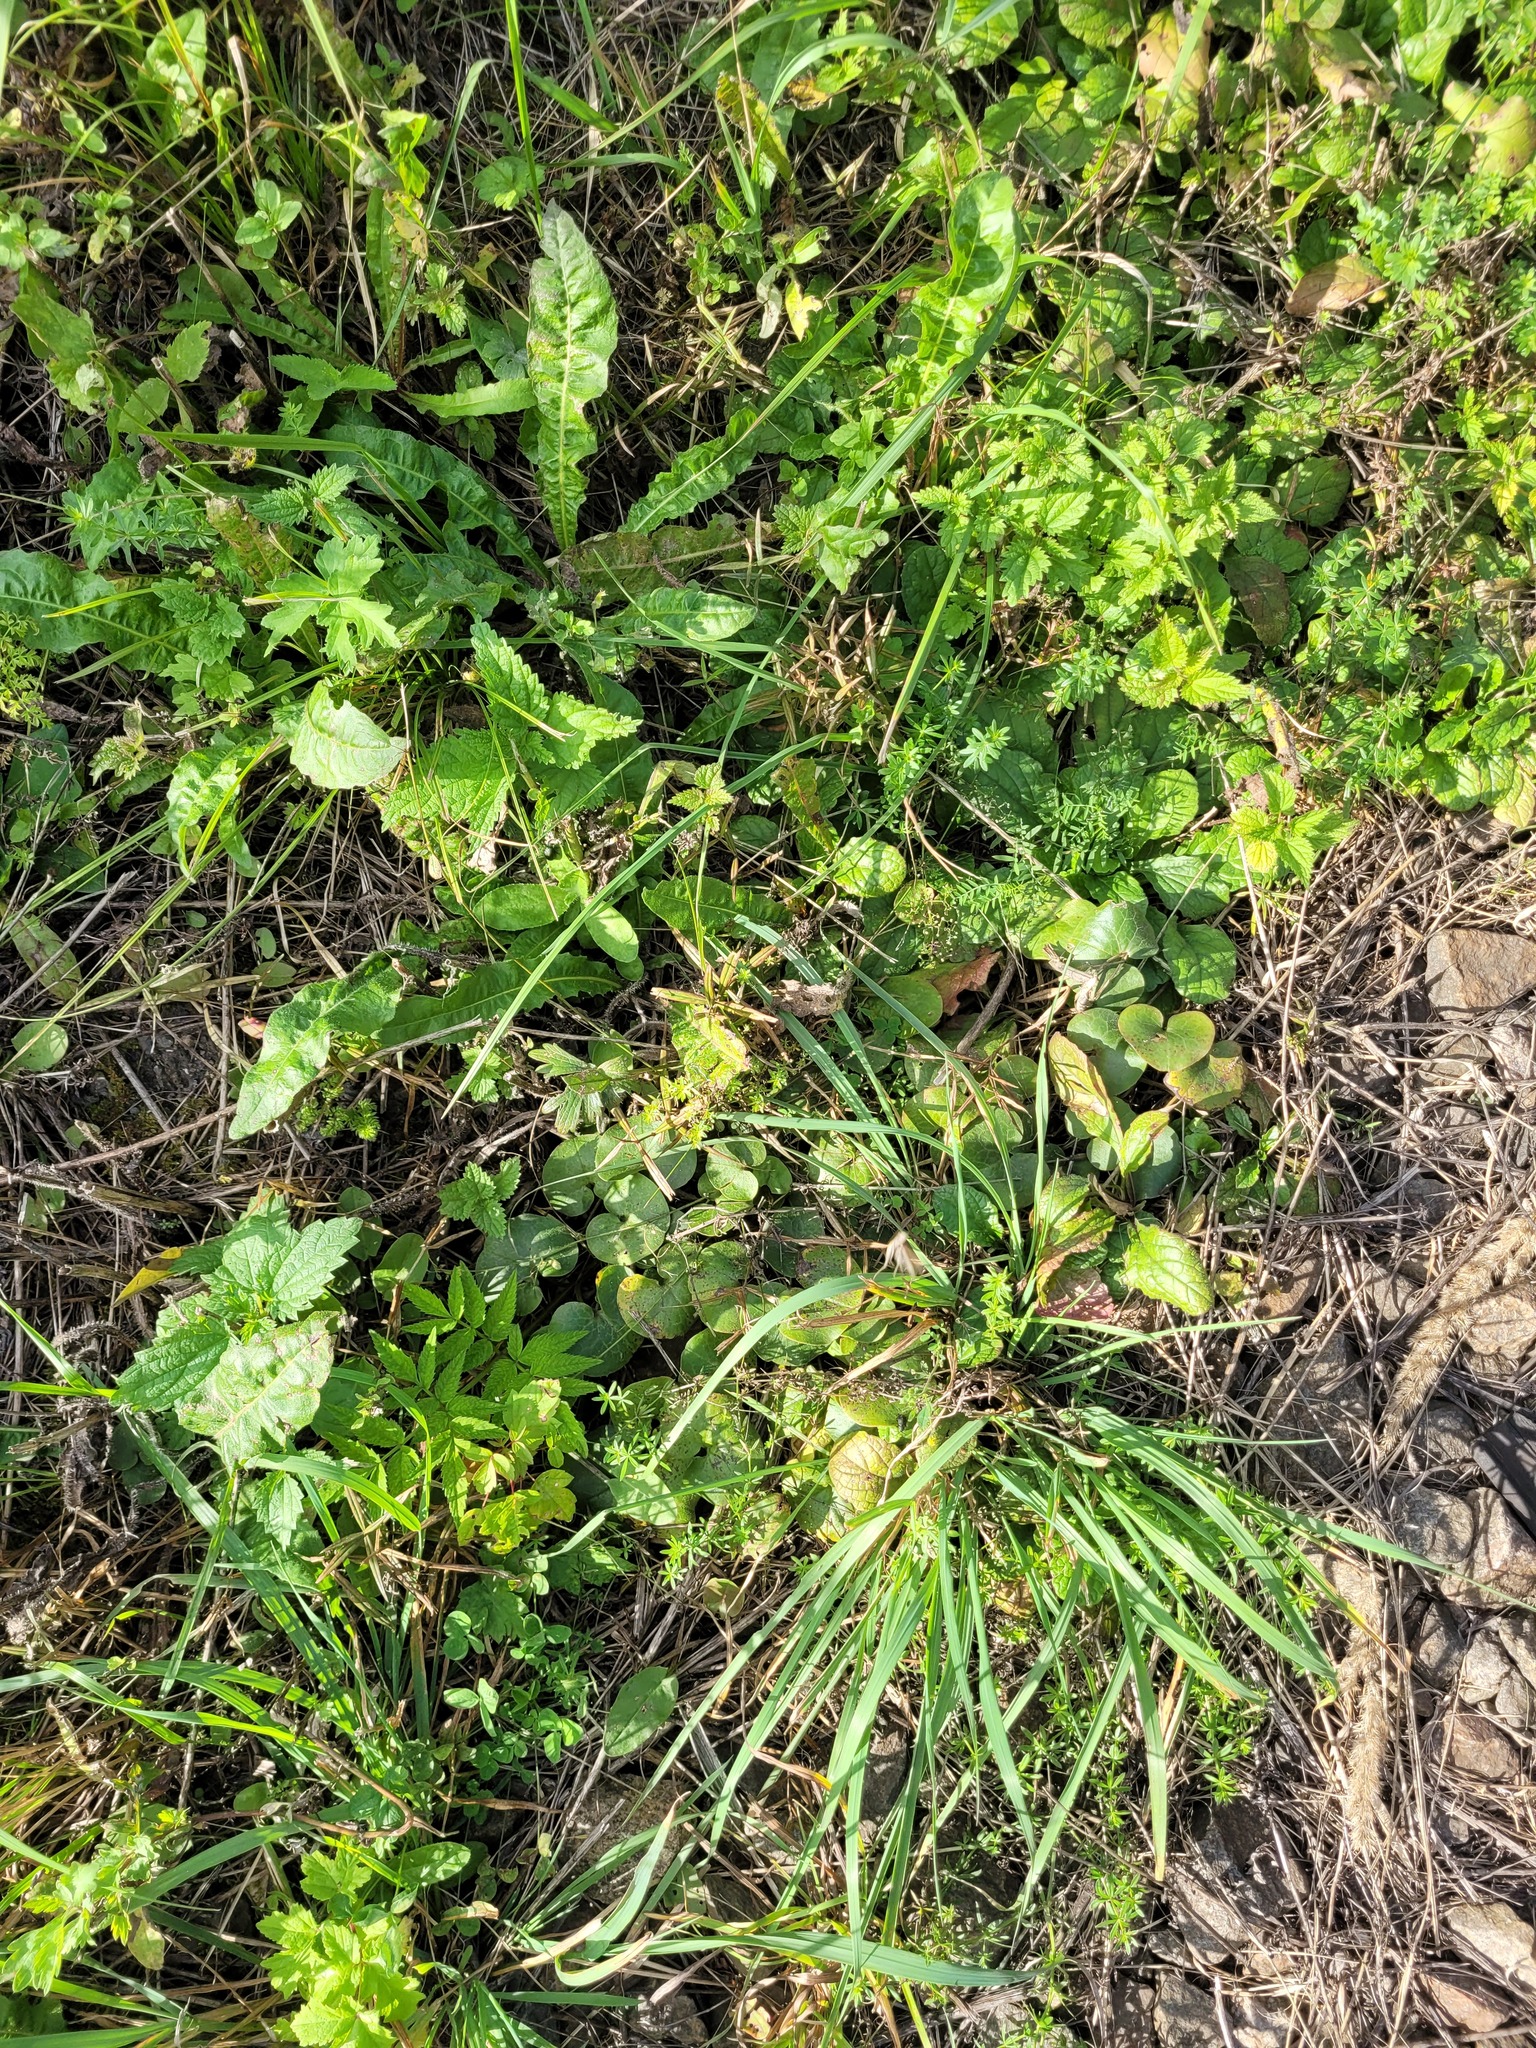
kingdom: Plantae
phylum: Tracheophyta
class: Magnoliopsida
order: Piperales
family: Aristolochiaceae
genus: Asarum
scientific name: Asarum europaeum
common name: Asarabacca
